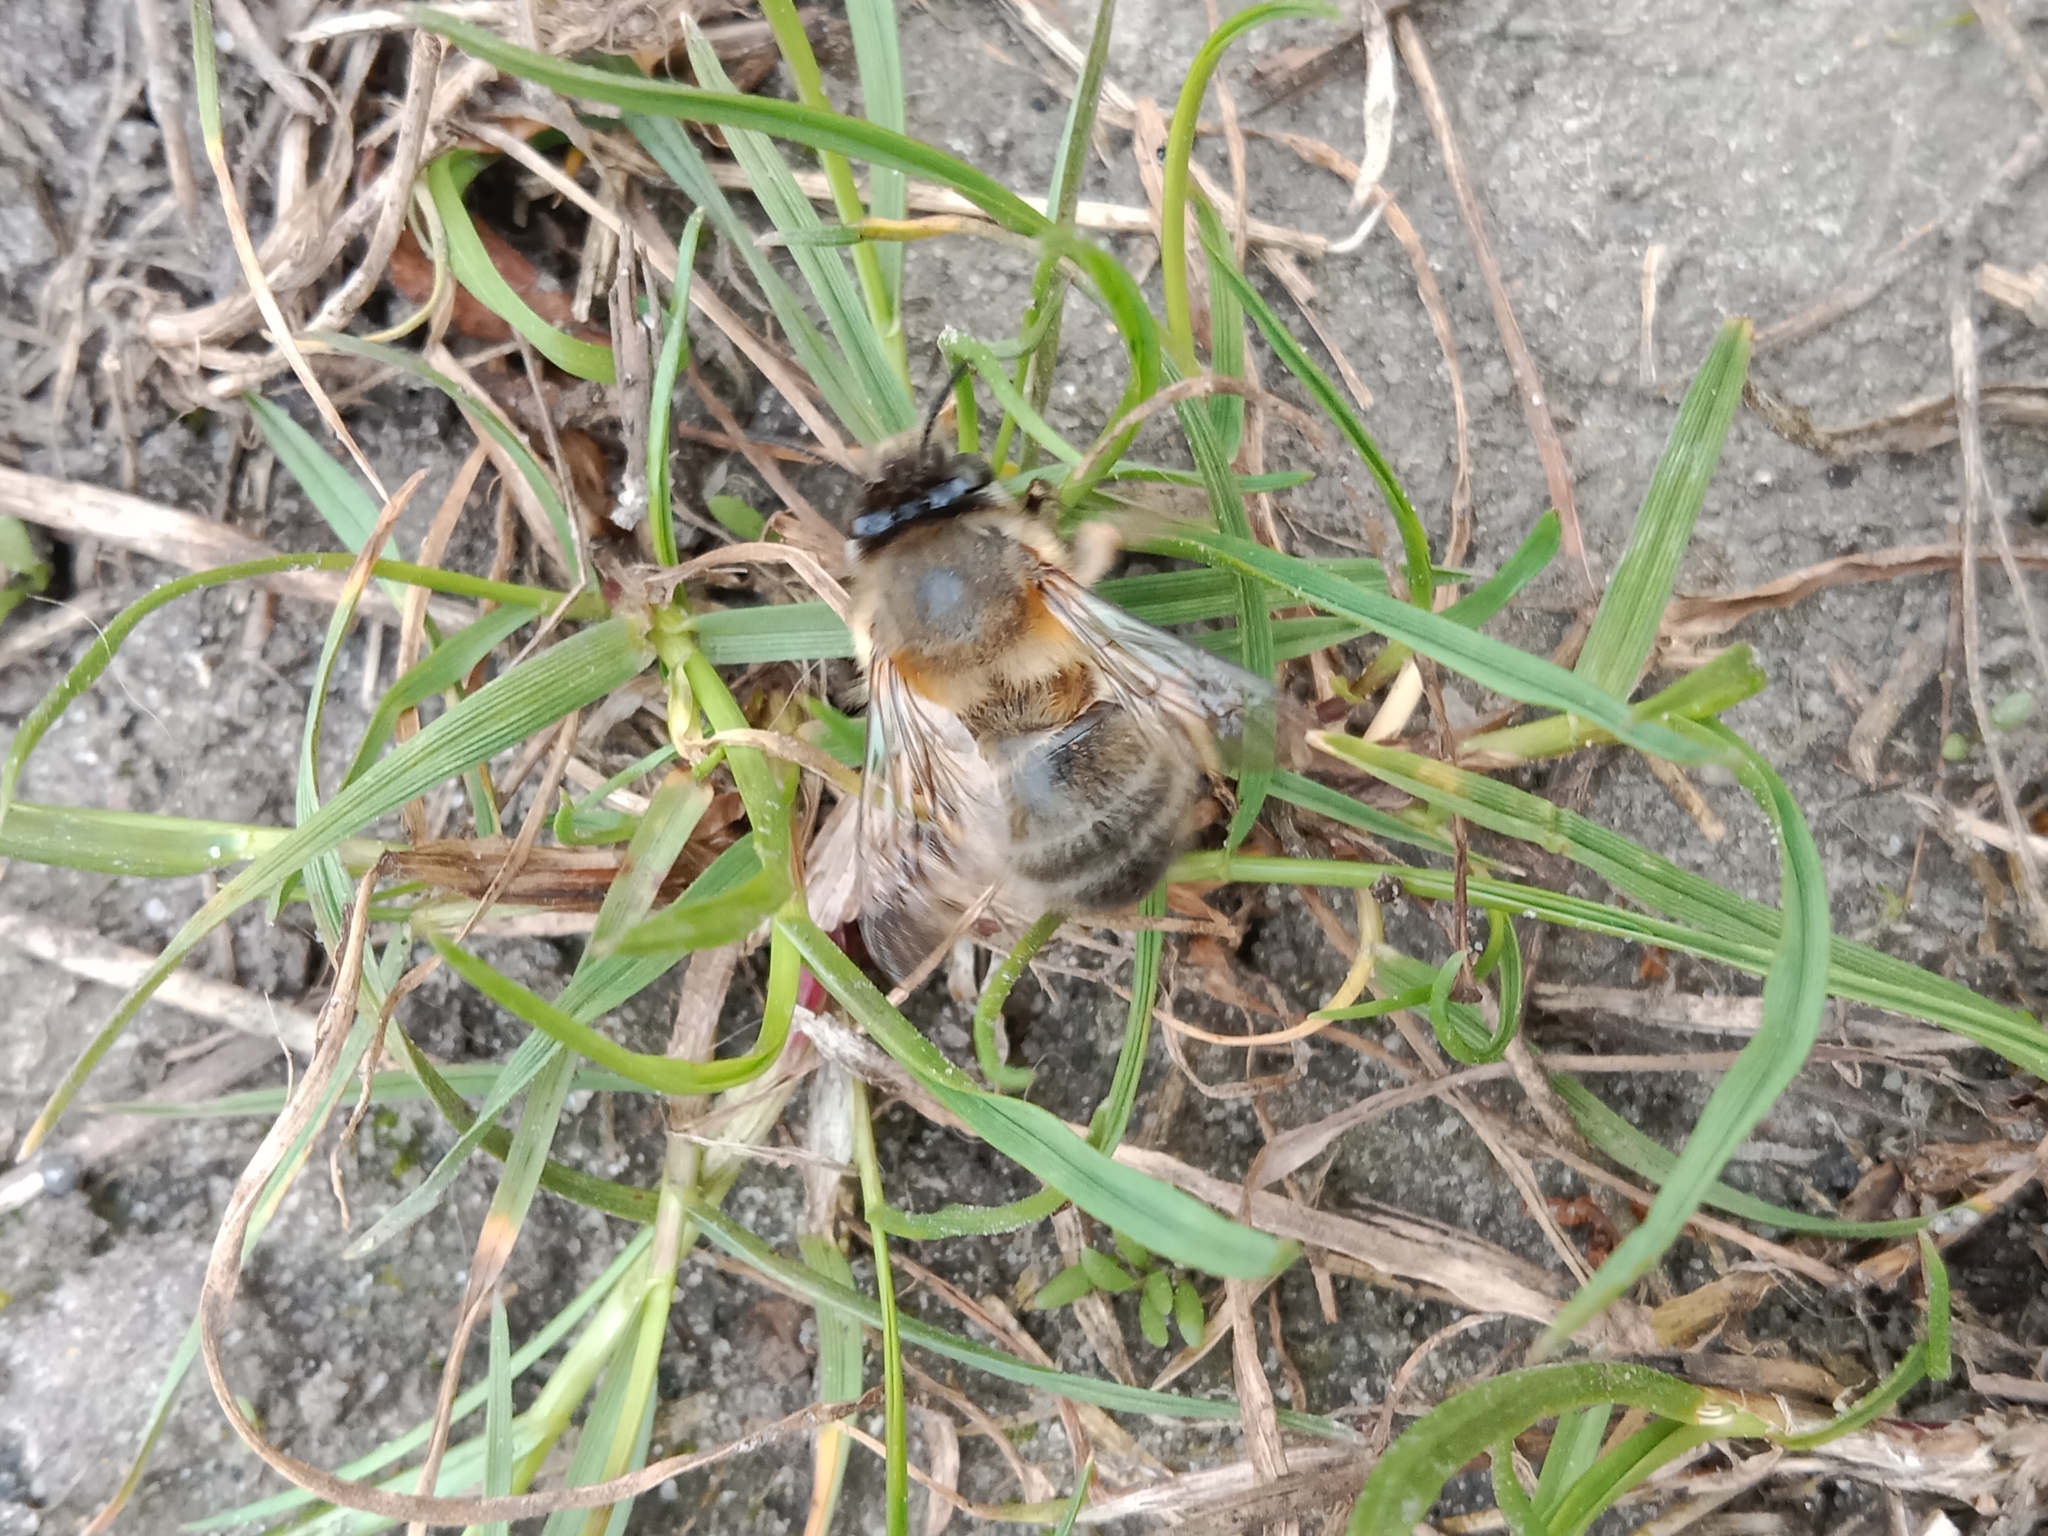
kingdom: Animalia
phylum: Arthropoda
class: Insecta
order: Hymenoptera
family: Apidae
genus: Anthophora
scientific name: Anthophora plumipes
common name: Hairy-footed flower bee
